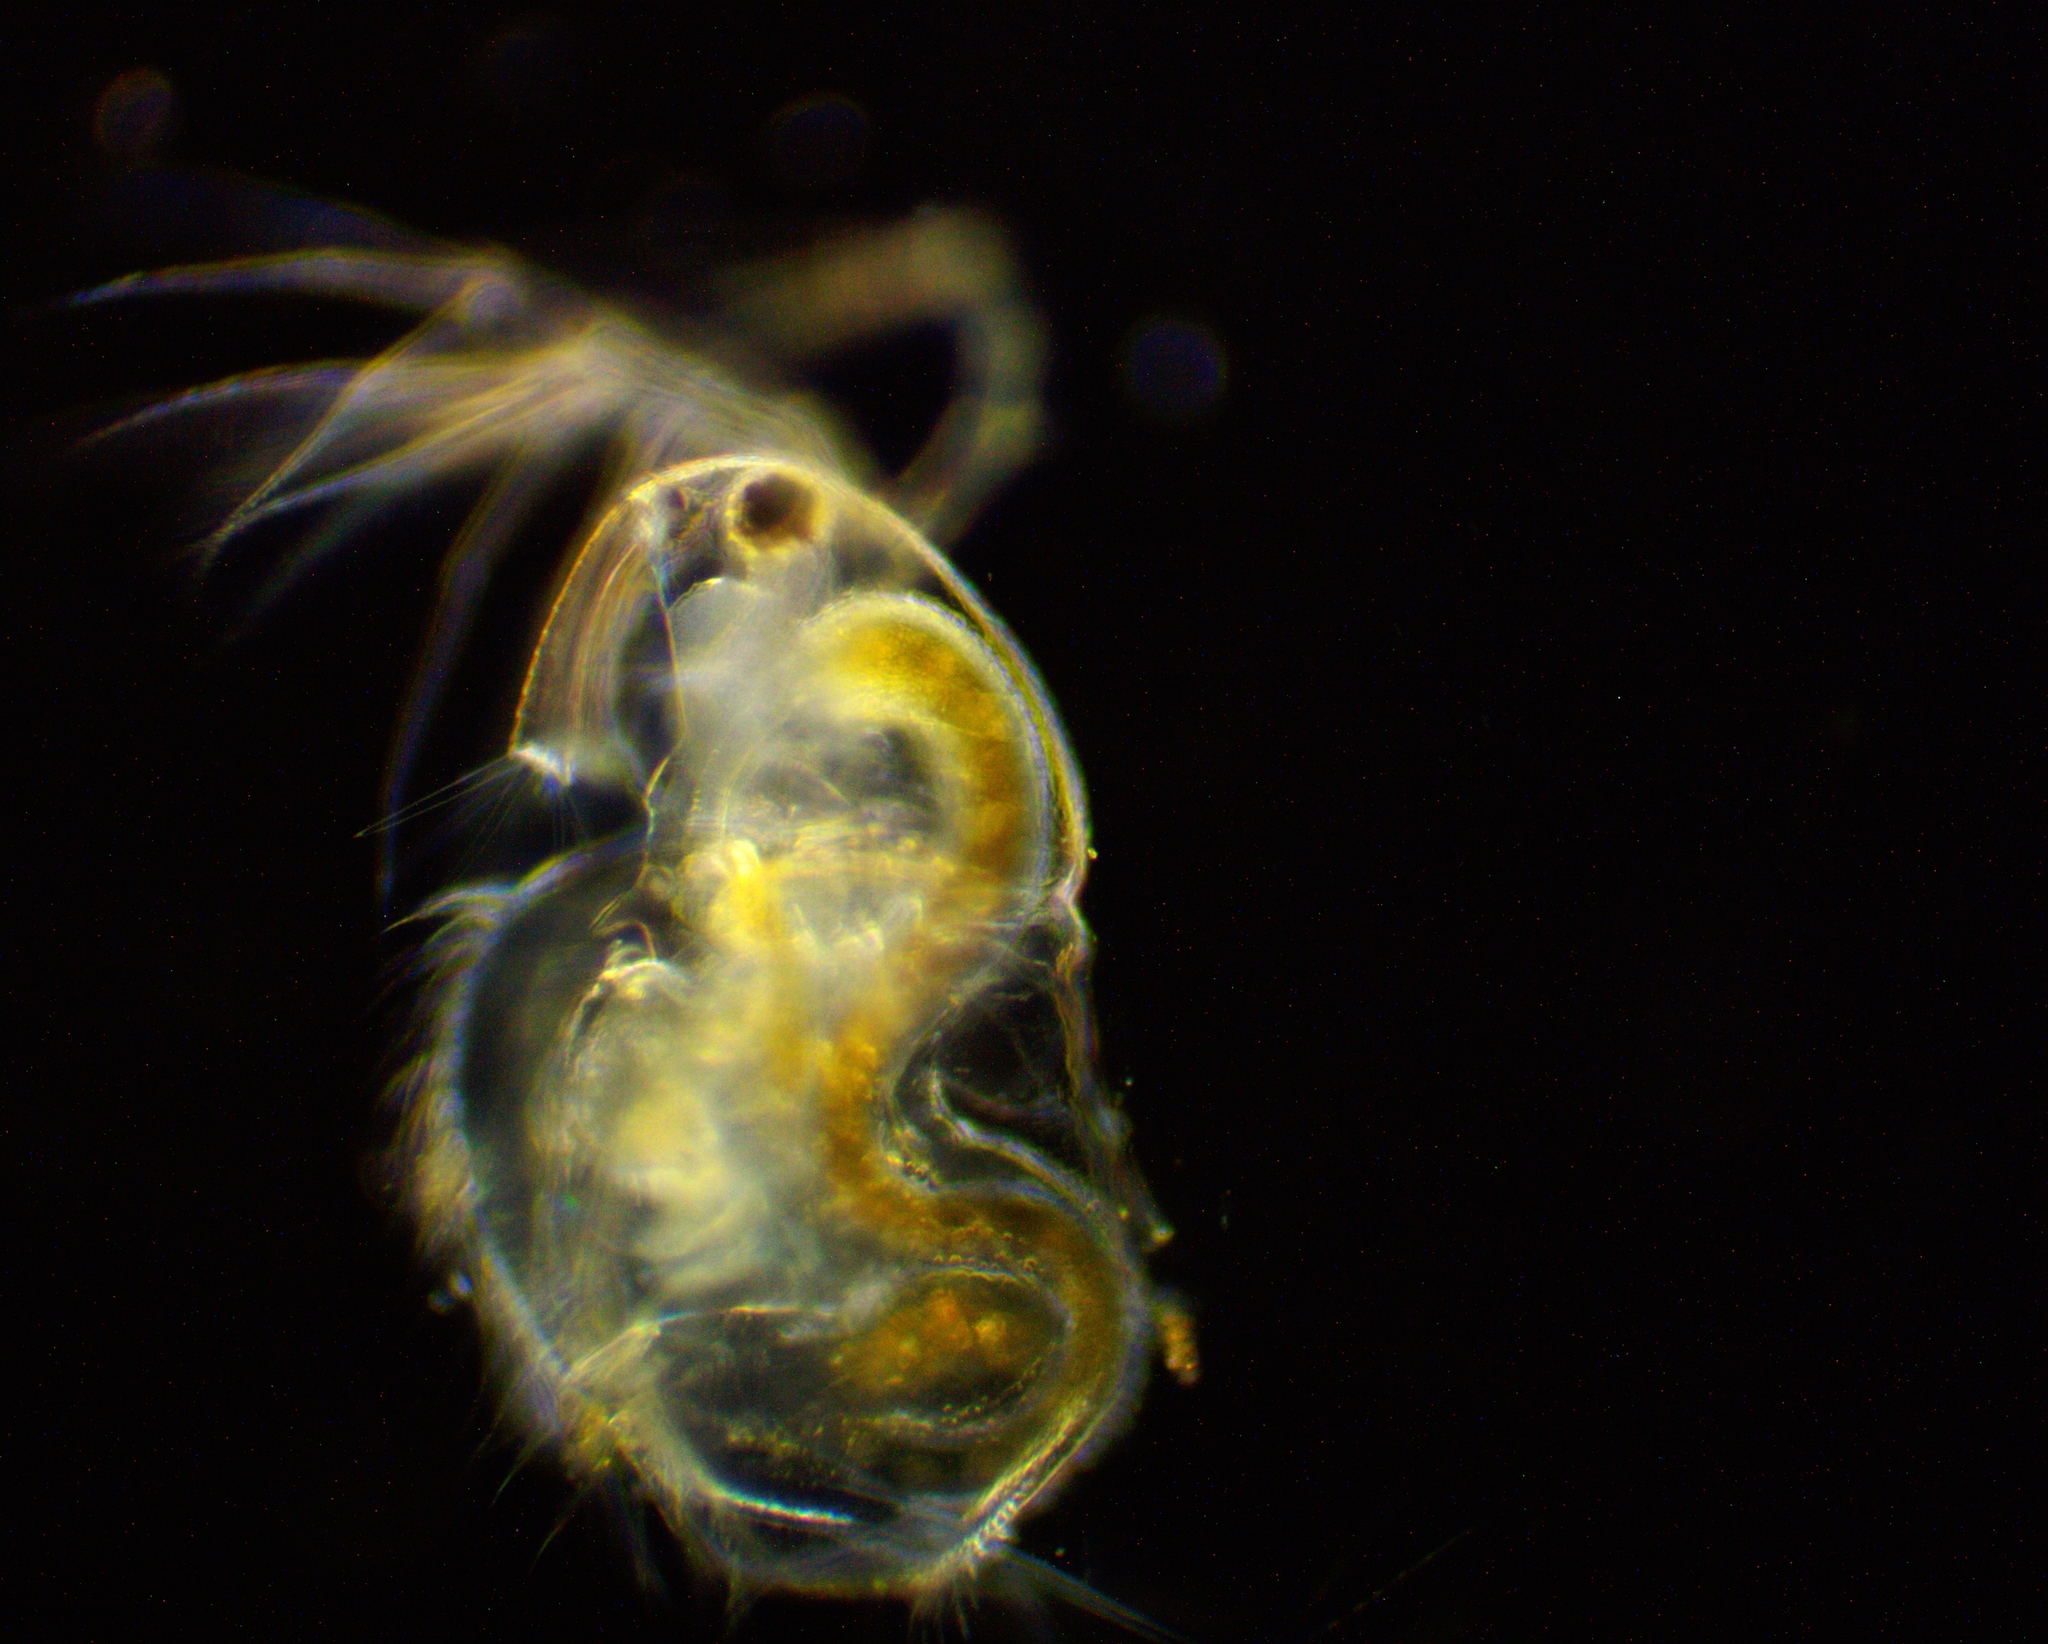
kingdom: Animalia
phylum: Arthropoda
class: Branchiopoda
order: Diplostraca
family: Acantholeberidae
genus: Acantholeberis
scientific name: Acantholeberis curvirostris
